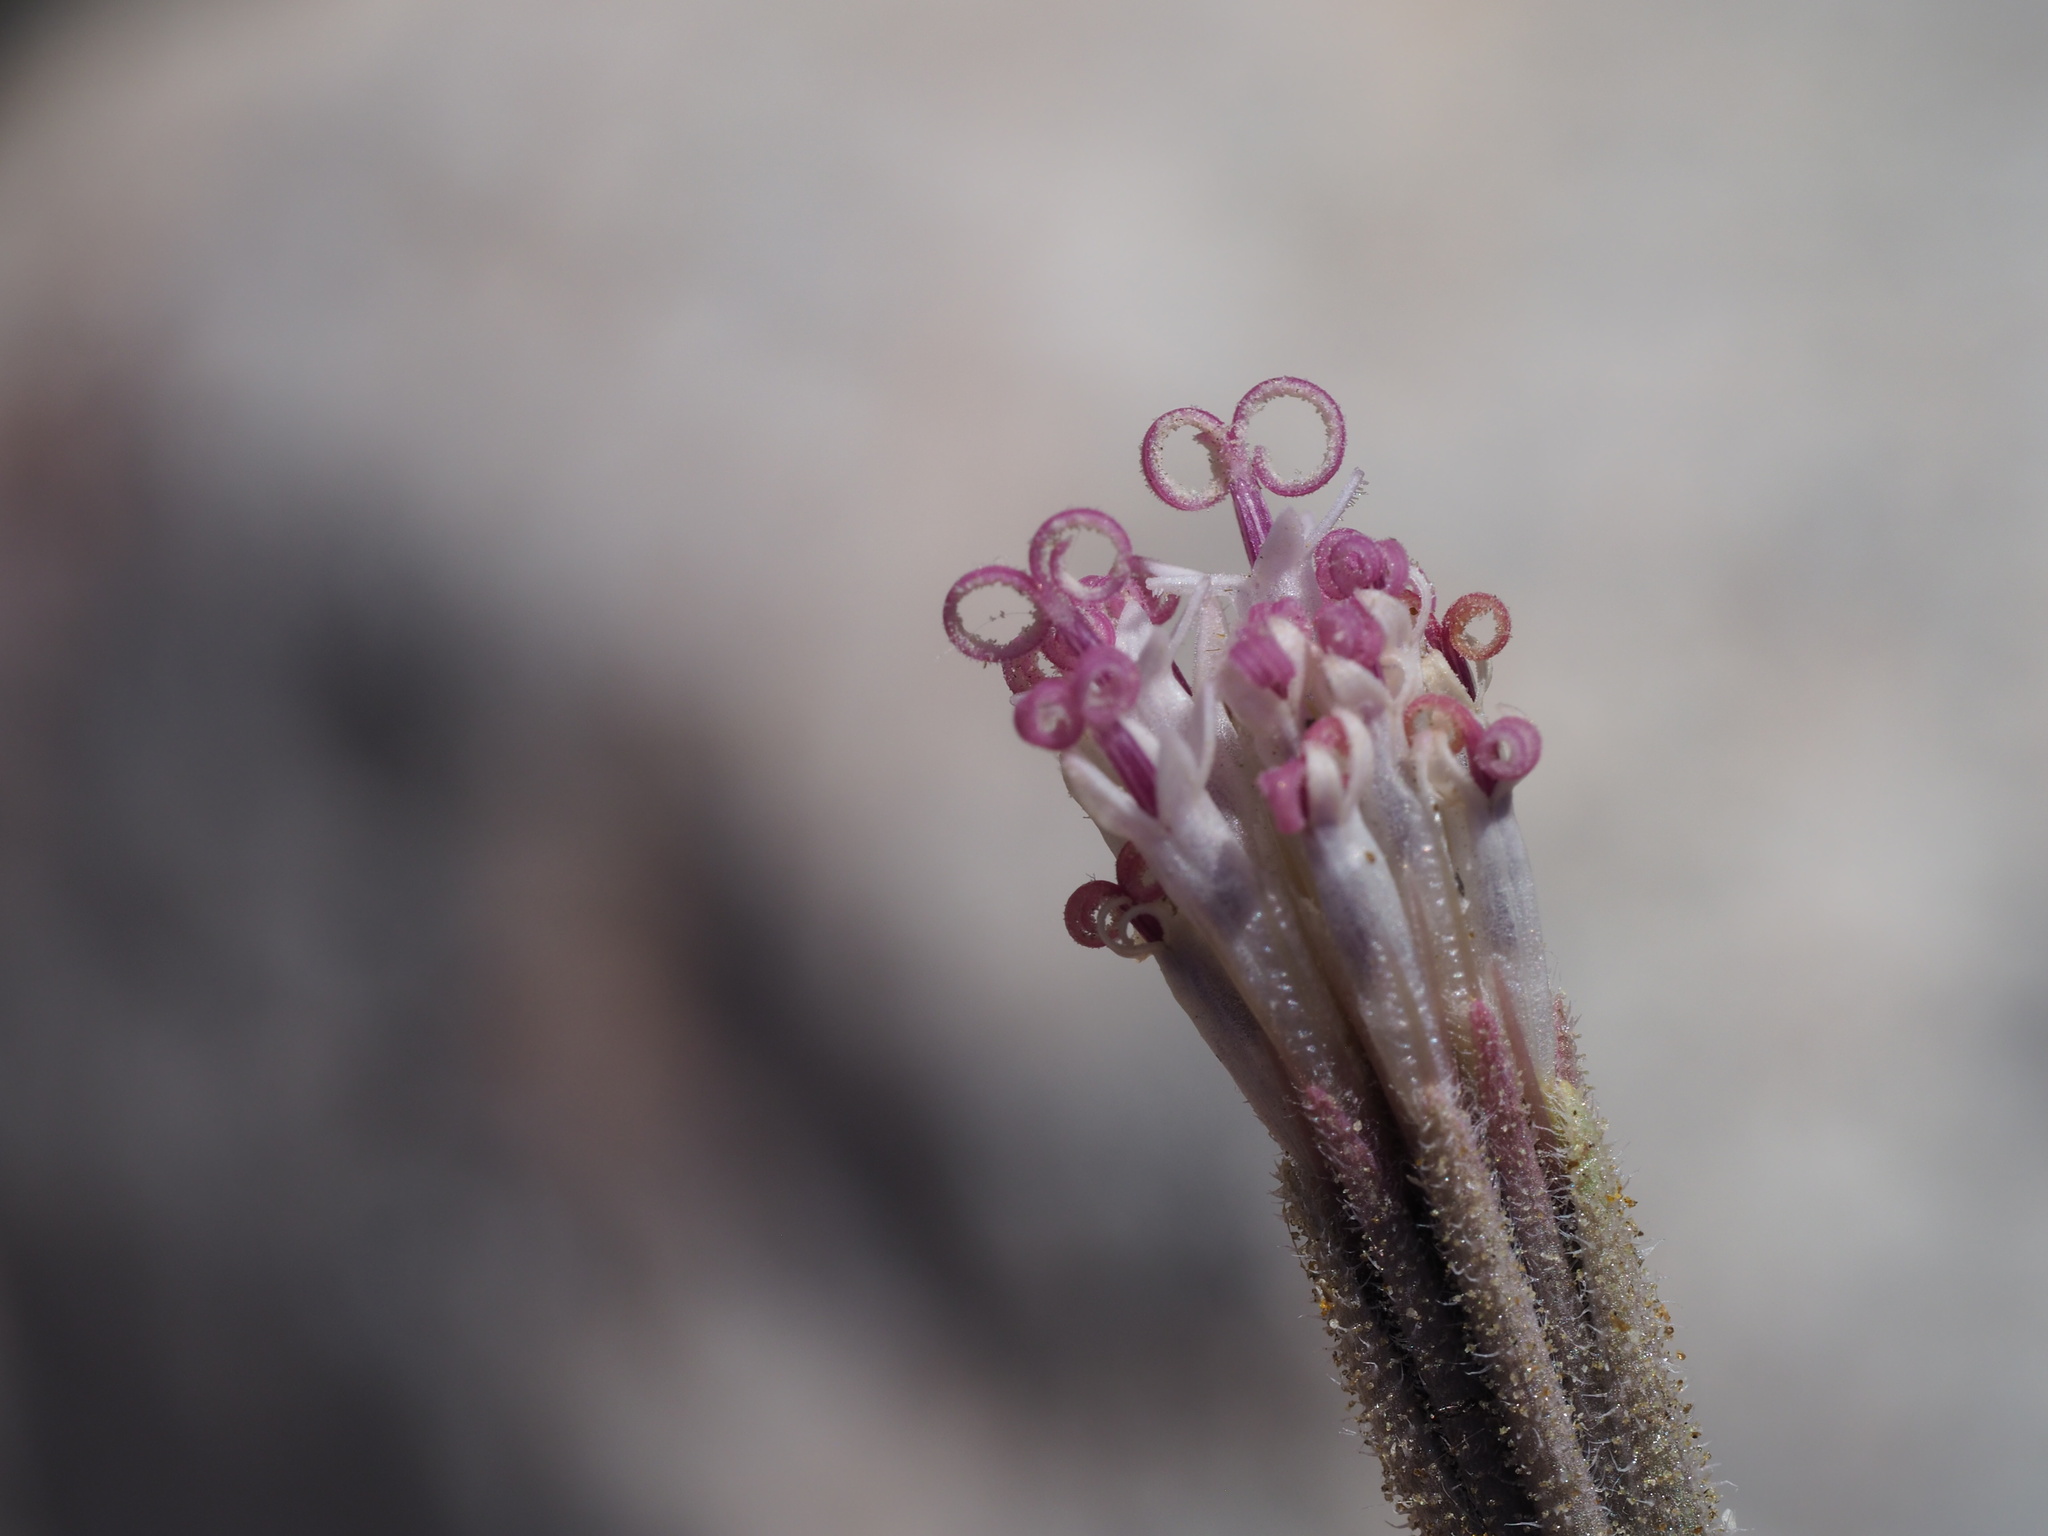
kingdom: Plantae
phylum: Tracheophyta
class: Magnoliopsida
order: Asterales
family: Asteraceae
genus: Palafoxia
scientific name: Palafoxia arida
